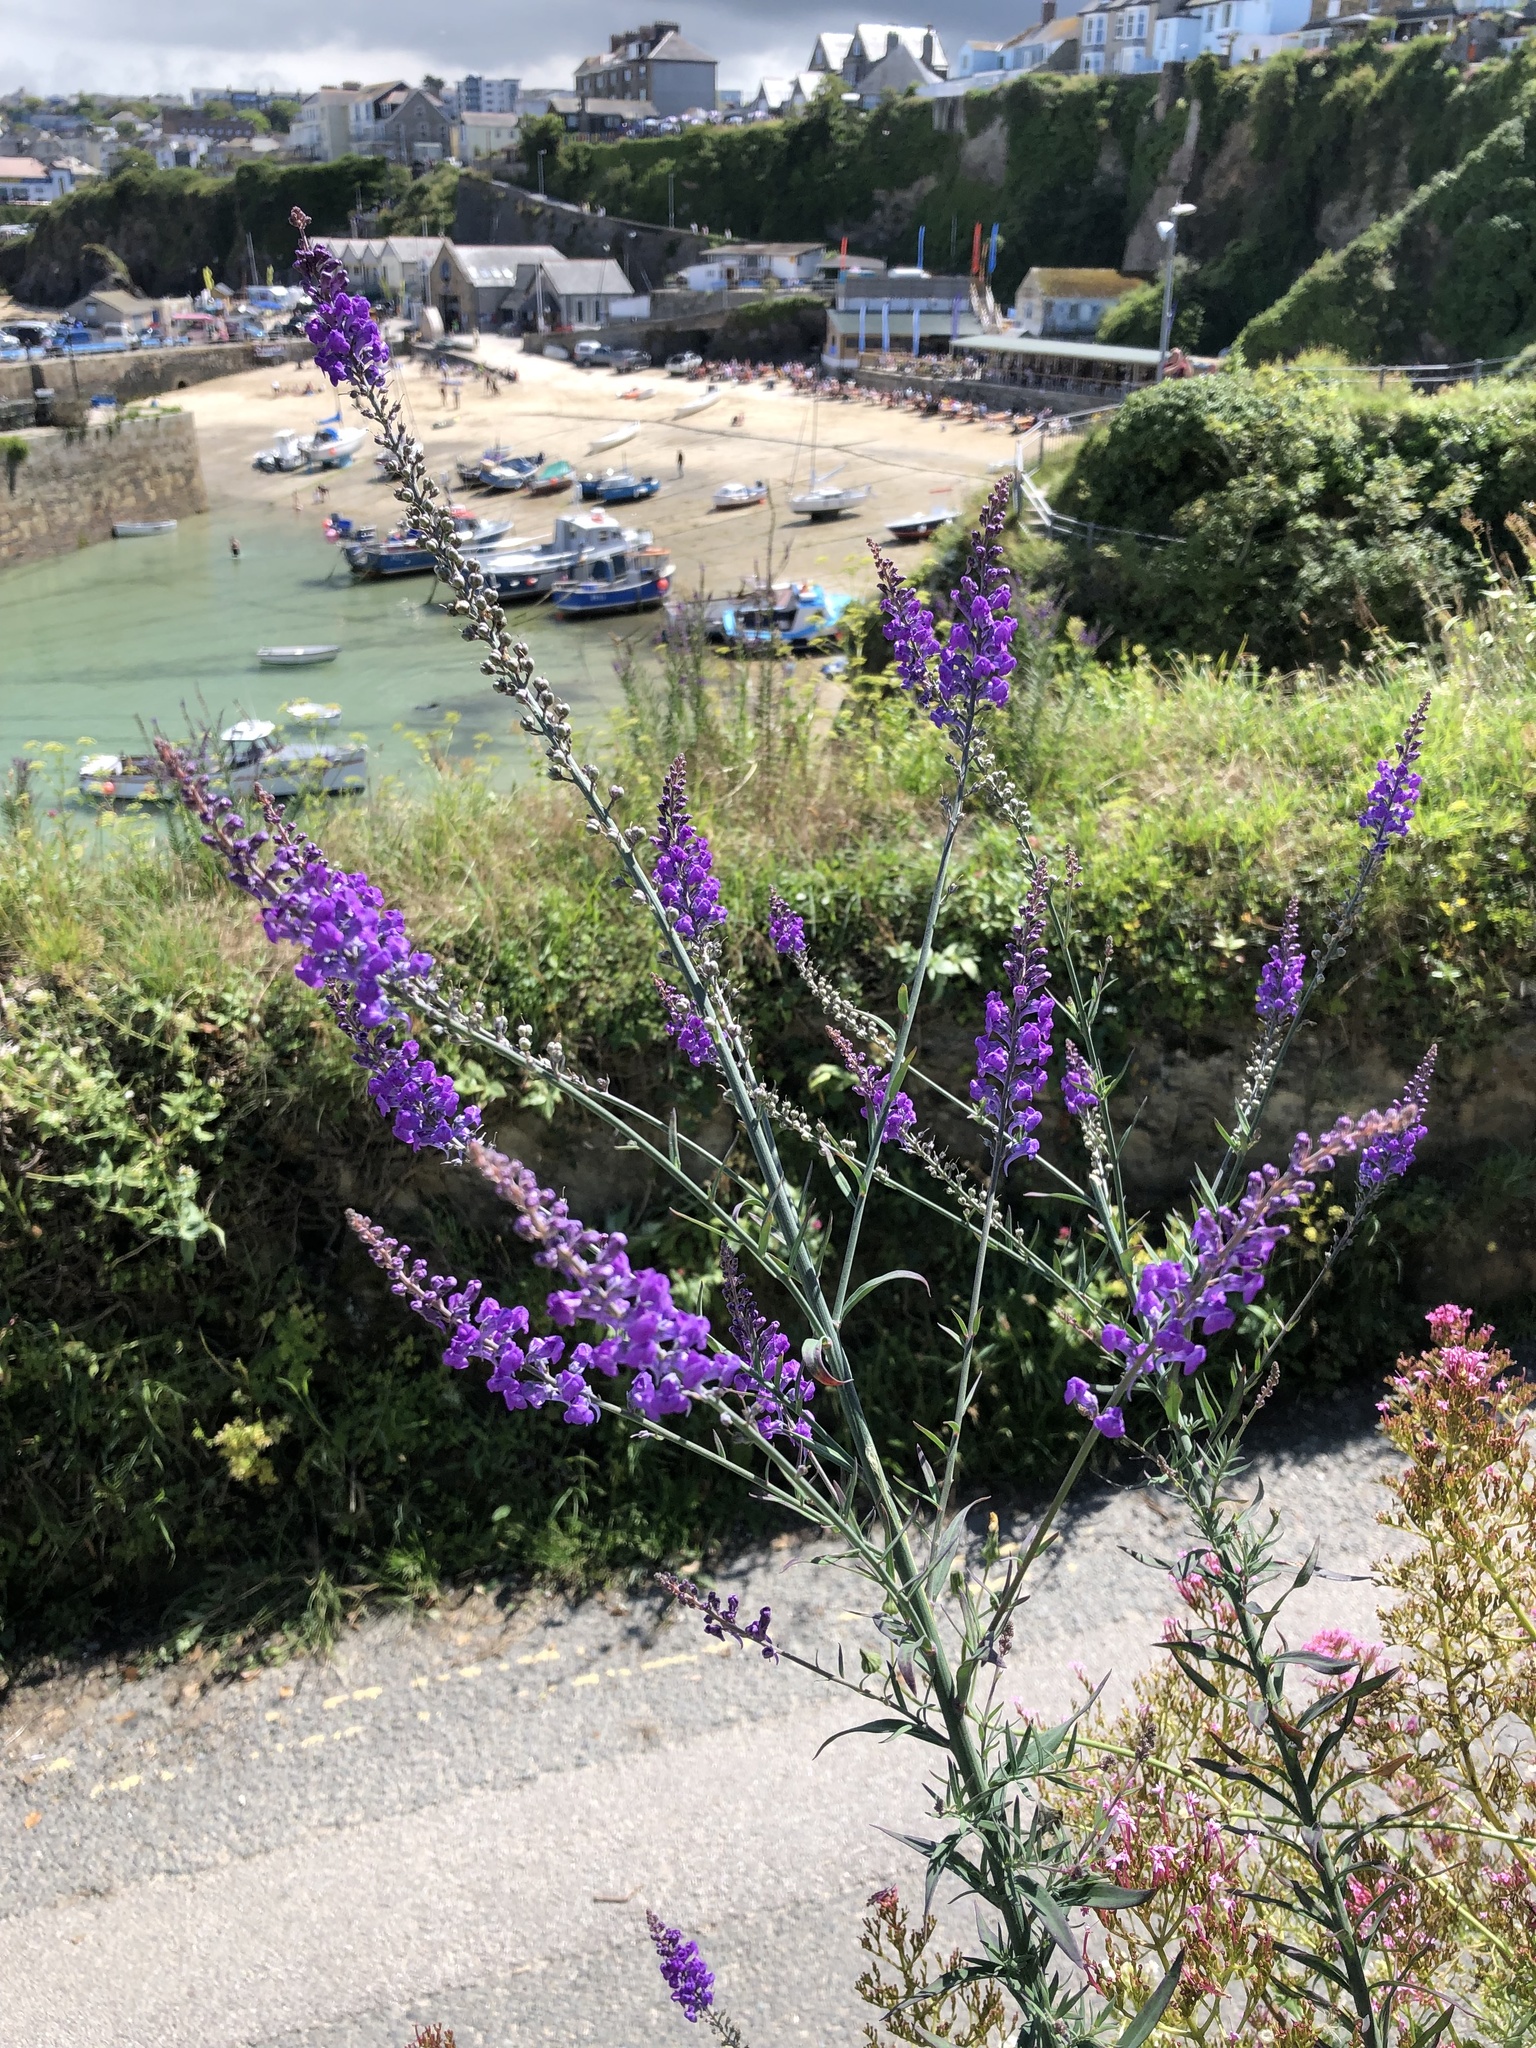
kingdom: Plantae
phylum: Tracheophyta
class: Magnoliopsida
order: Lamiales
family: Plantaginaceae
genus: Linaria
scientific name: Linaria purpurea
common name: Purple toadflax
